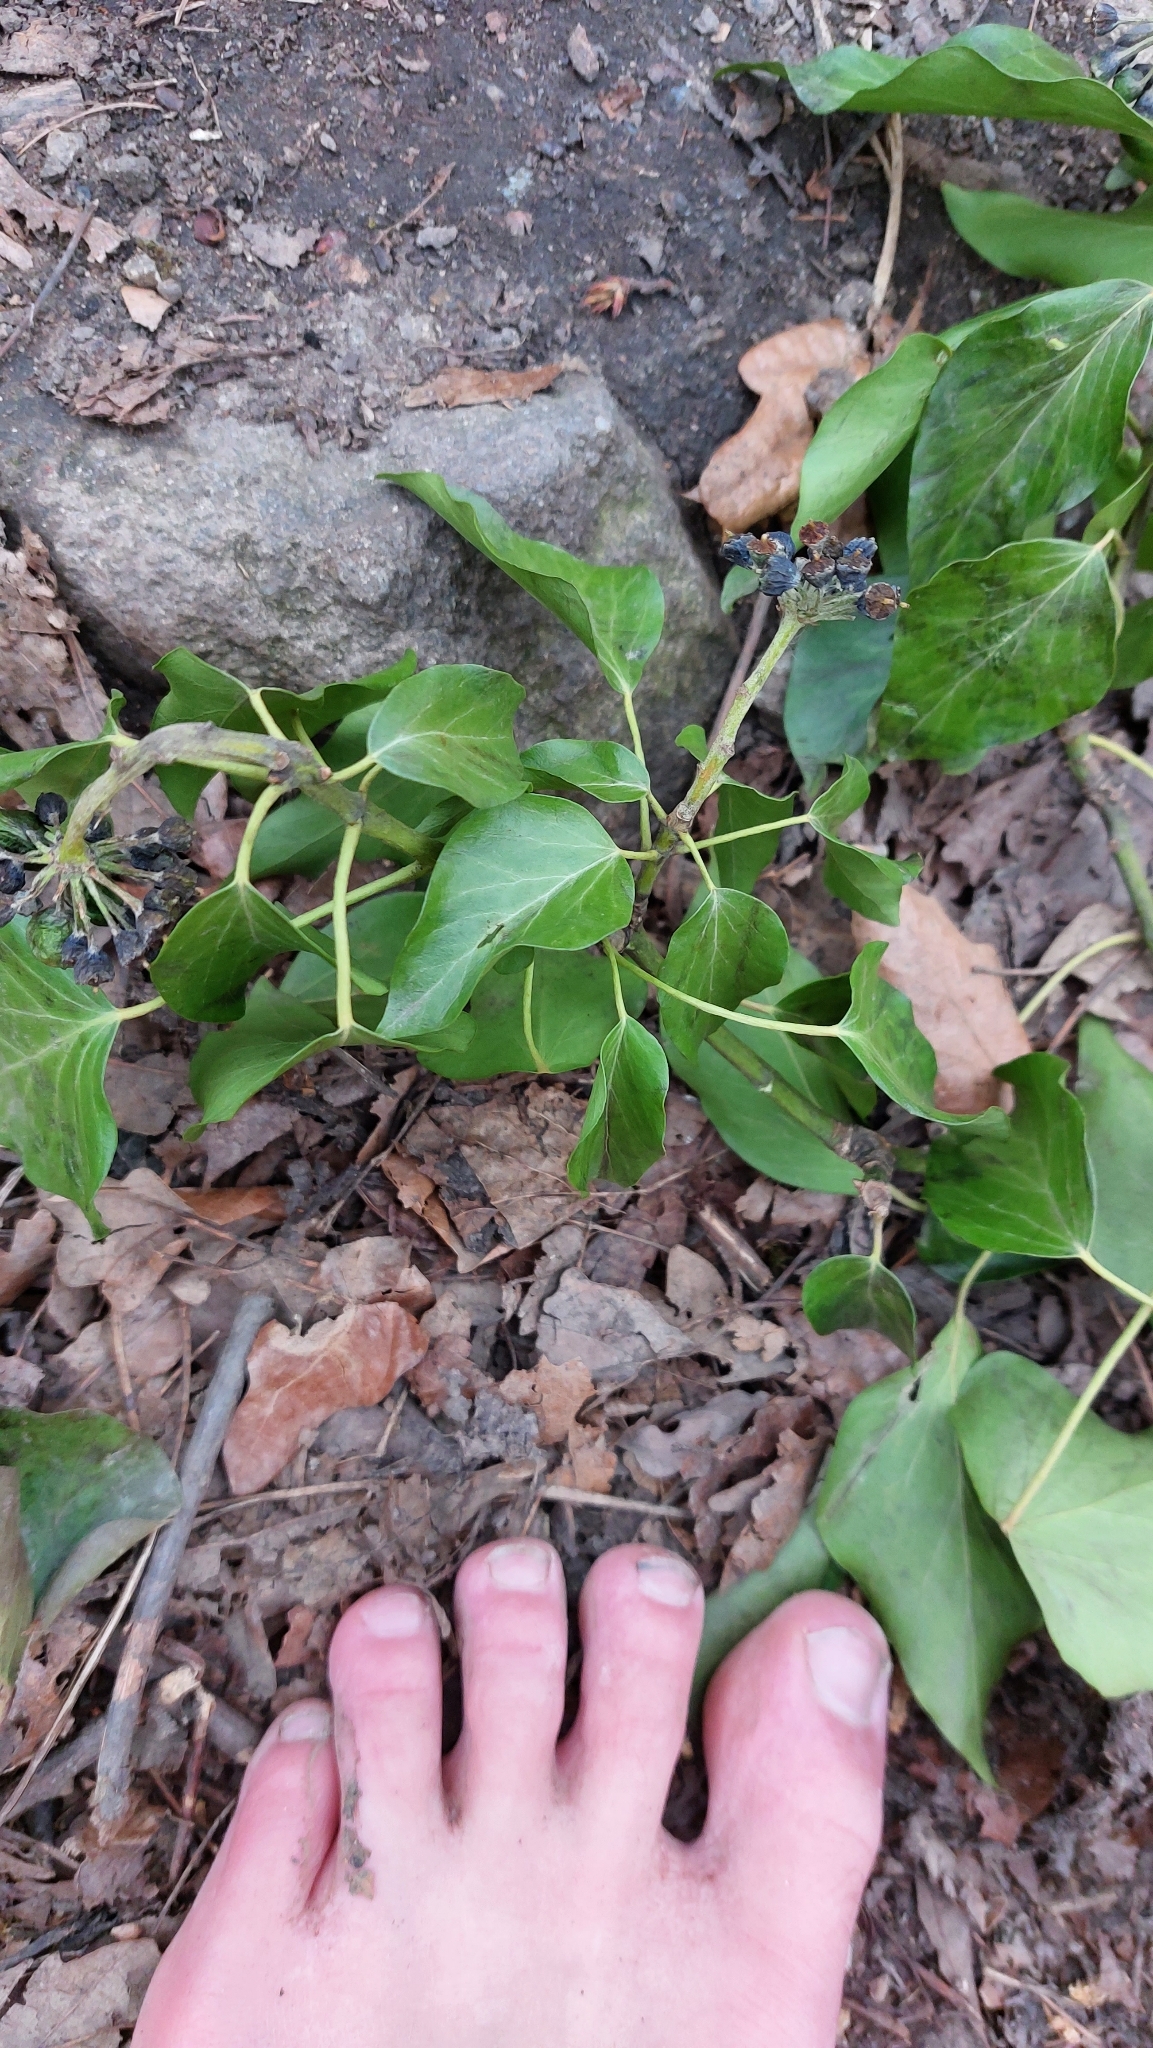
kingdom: Plantae
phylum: Tracheophyta
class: Magnoliopsida
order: Apiales
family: Araliaceae
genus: Hedera
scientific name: Hedera helix
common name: Ivy
